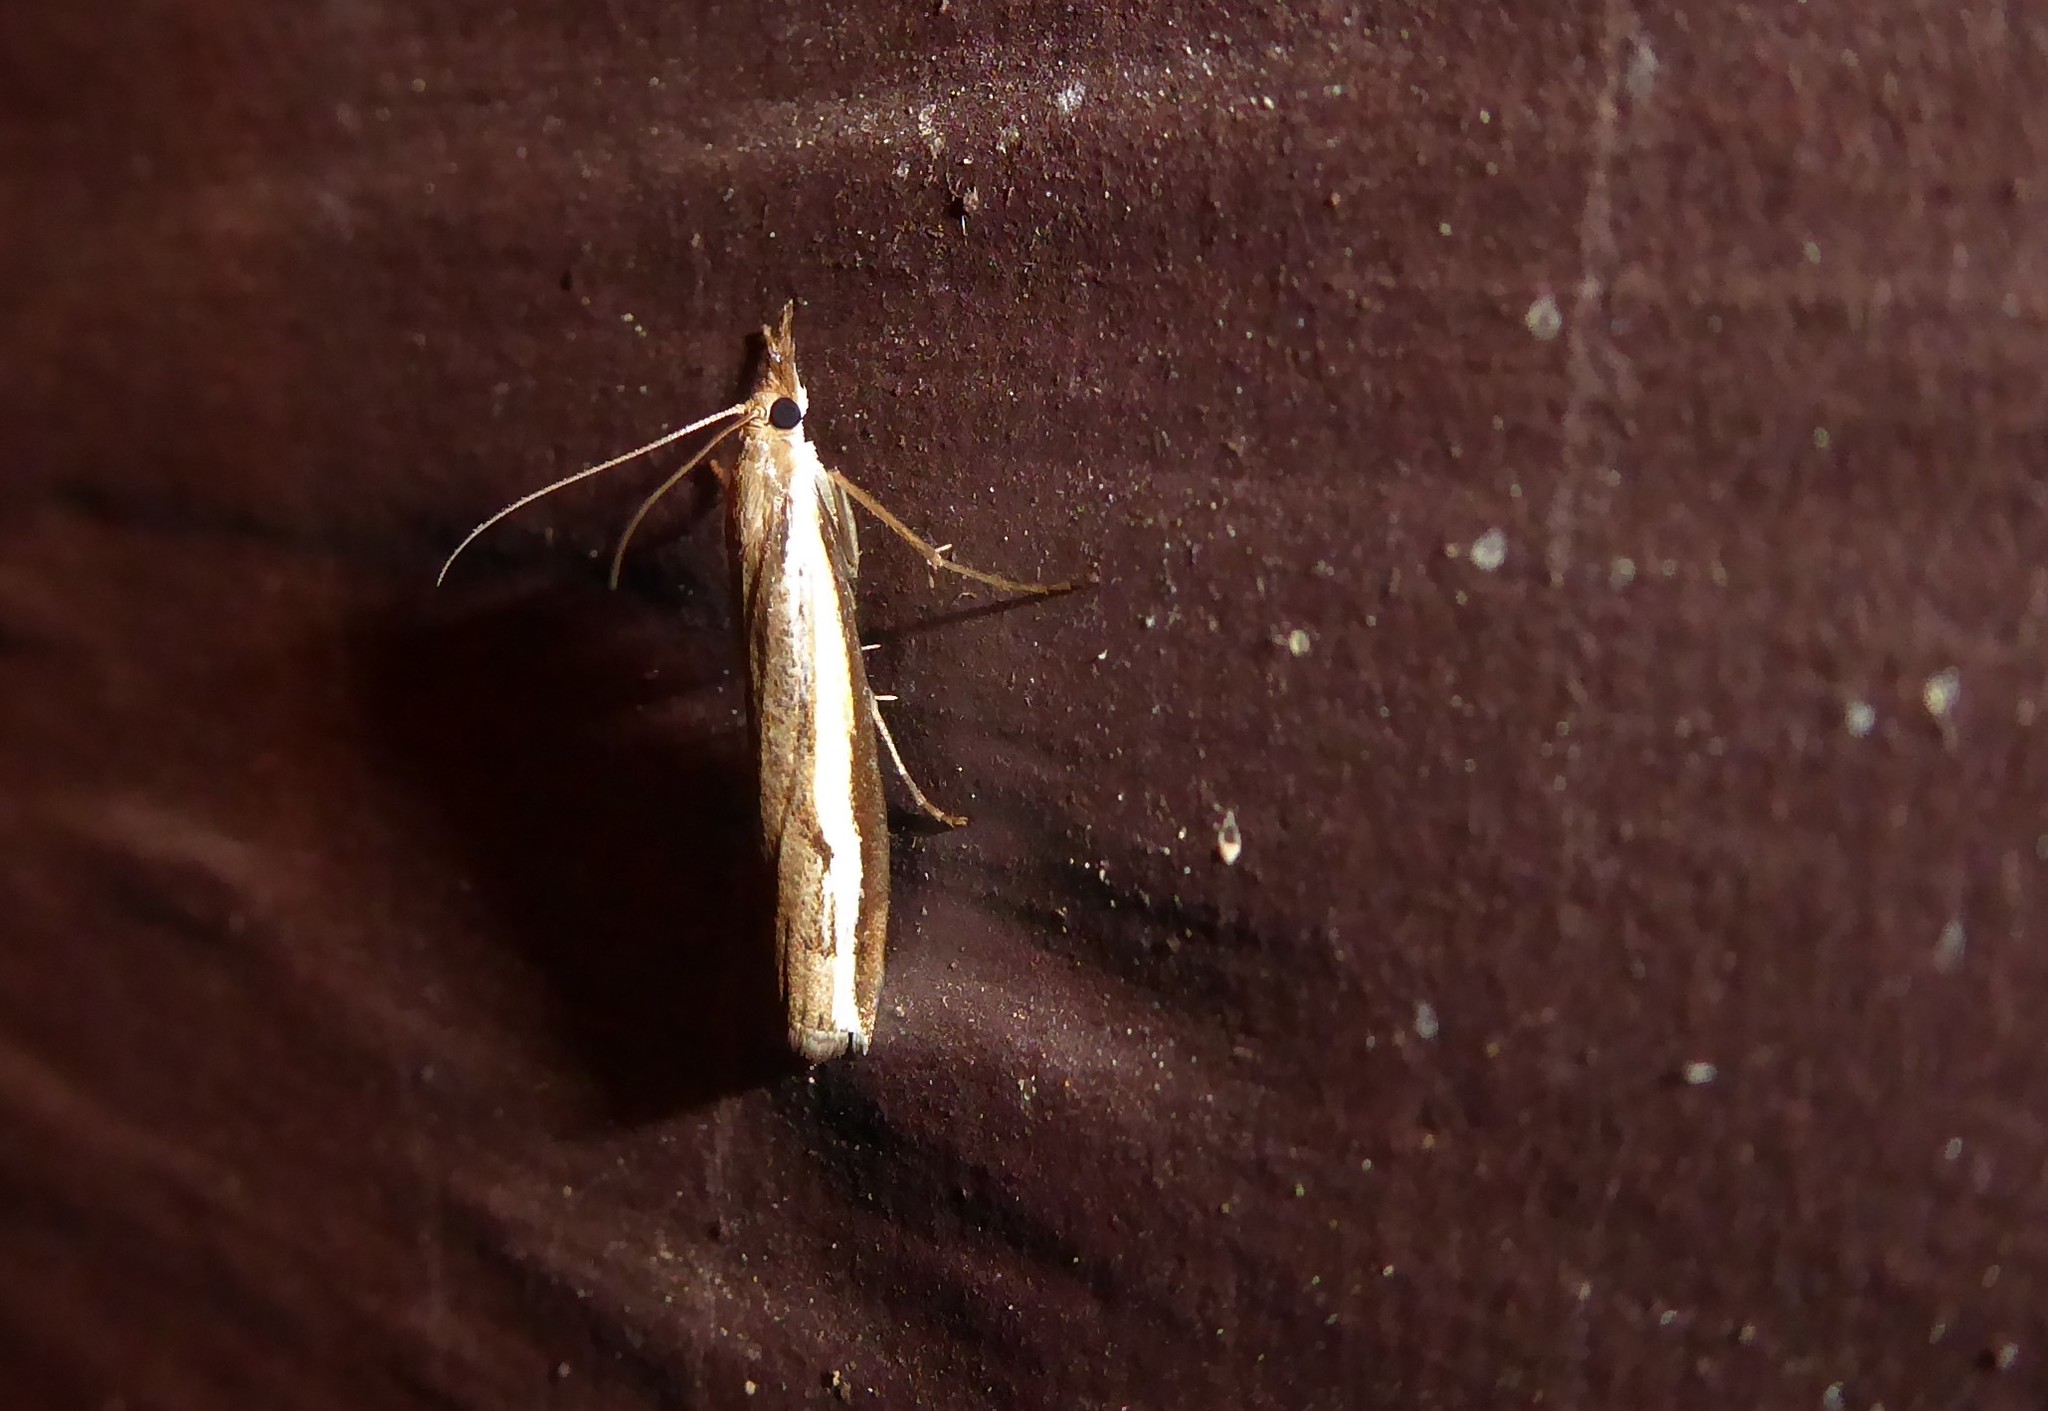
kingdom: Animalia
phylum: Arthropoda
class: Insecta
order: Lepidoptera
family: Crambidae
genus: Orocrambus
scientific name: Orocrambus flexuosellus
